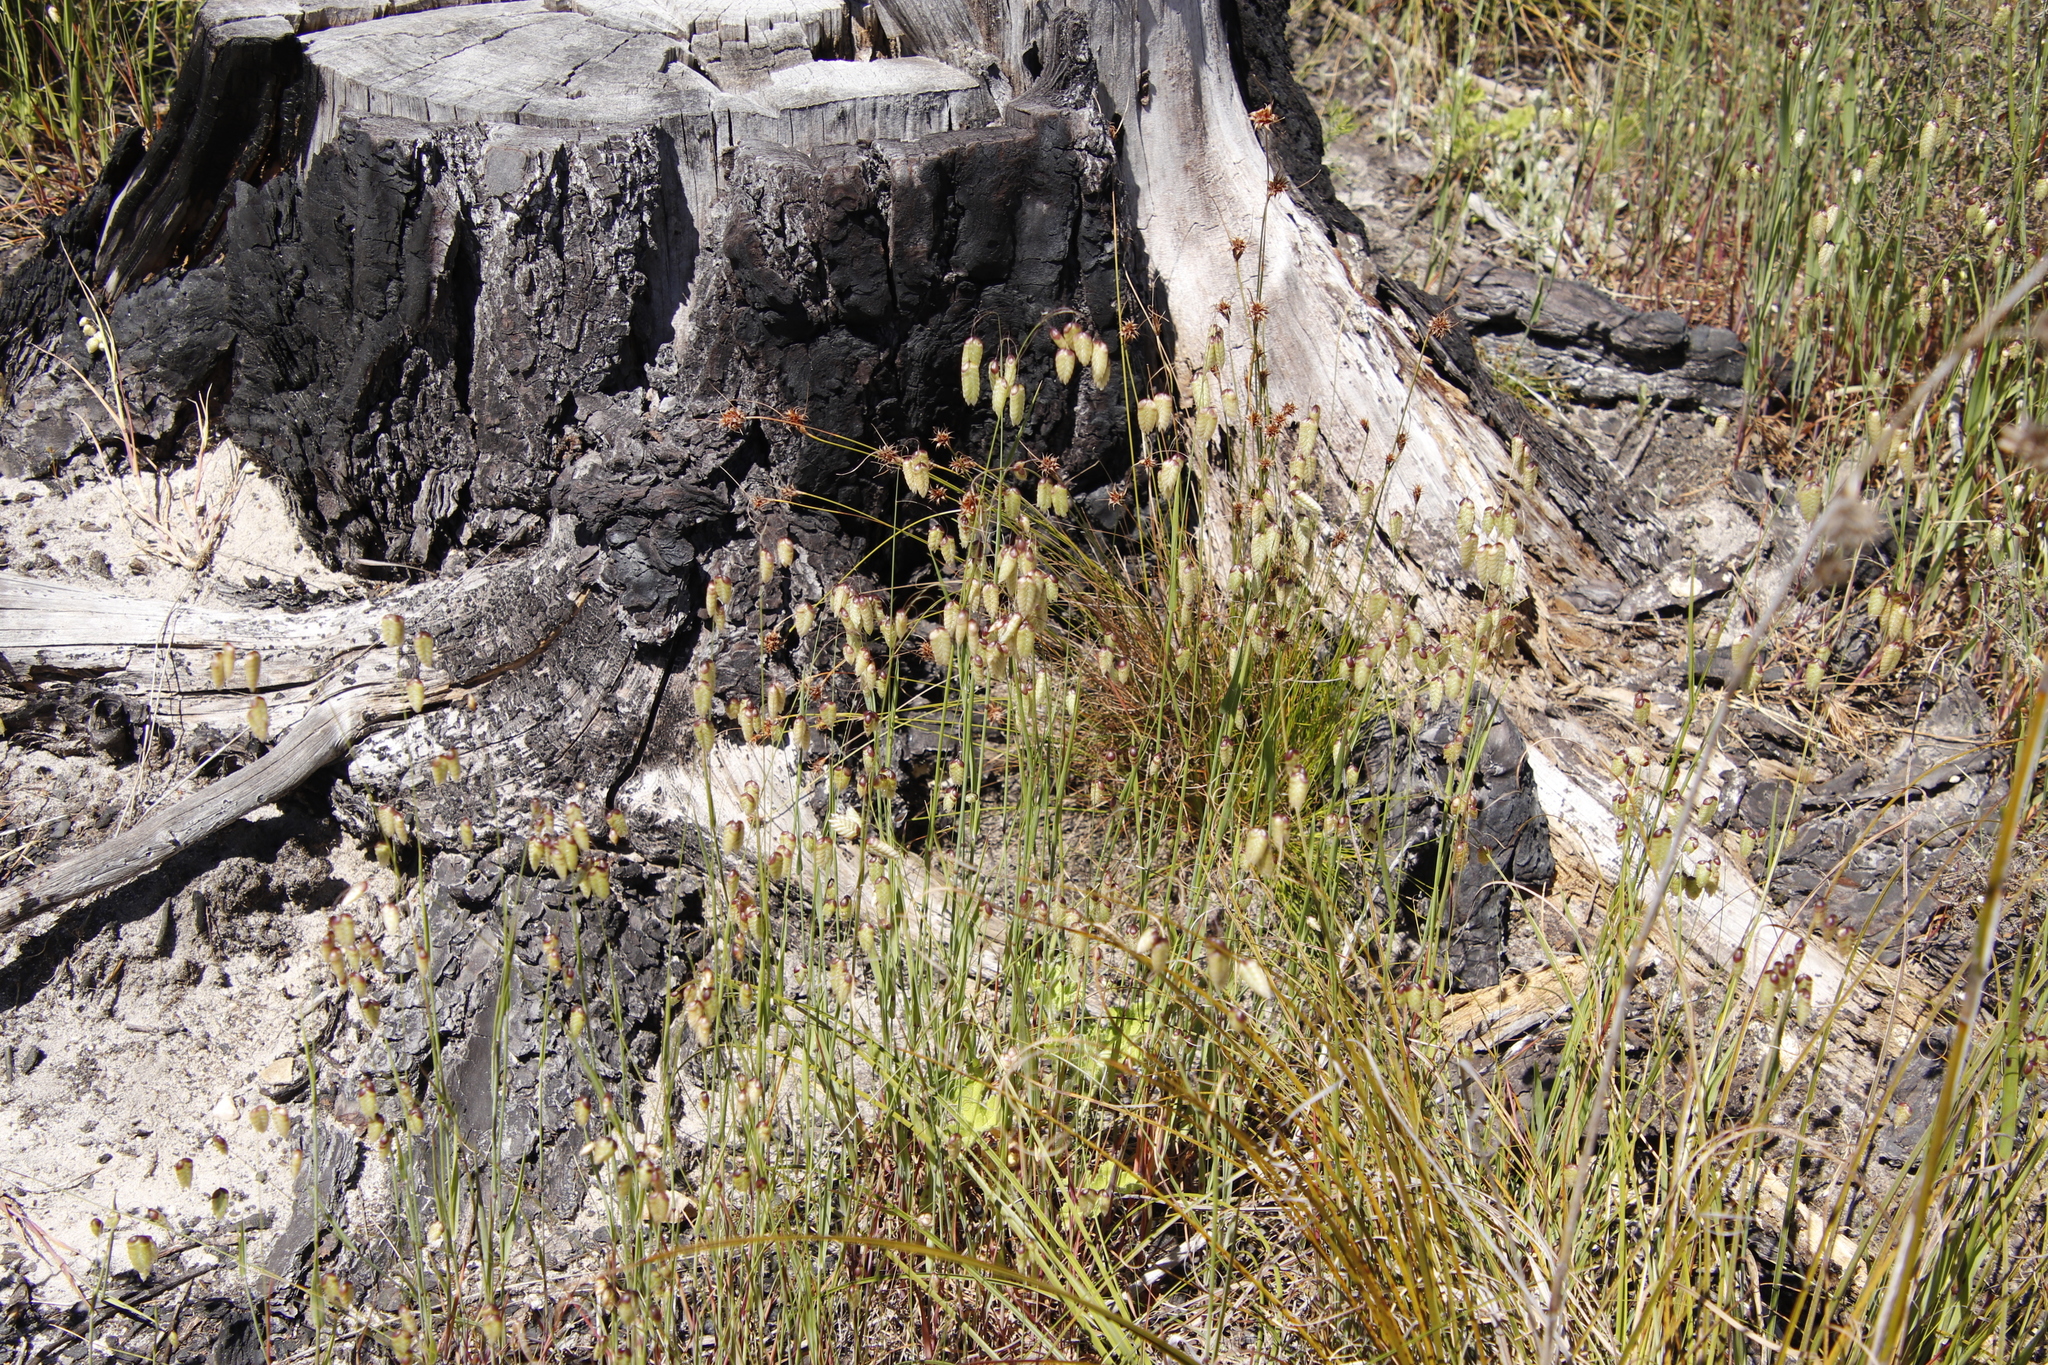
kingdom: Plantae
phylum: Tracheophyta
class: Liliopsida
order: Poales
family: Poaceae
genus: Briza
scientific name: Briza maxima
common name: Big quakinggrass
